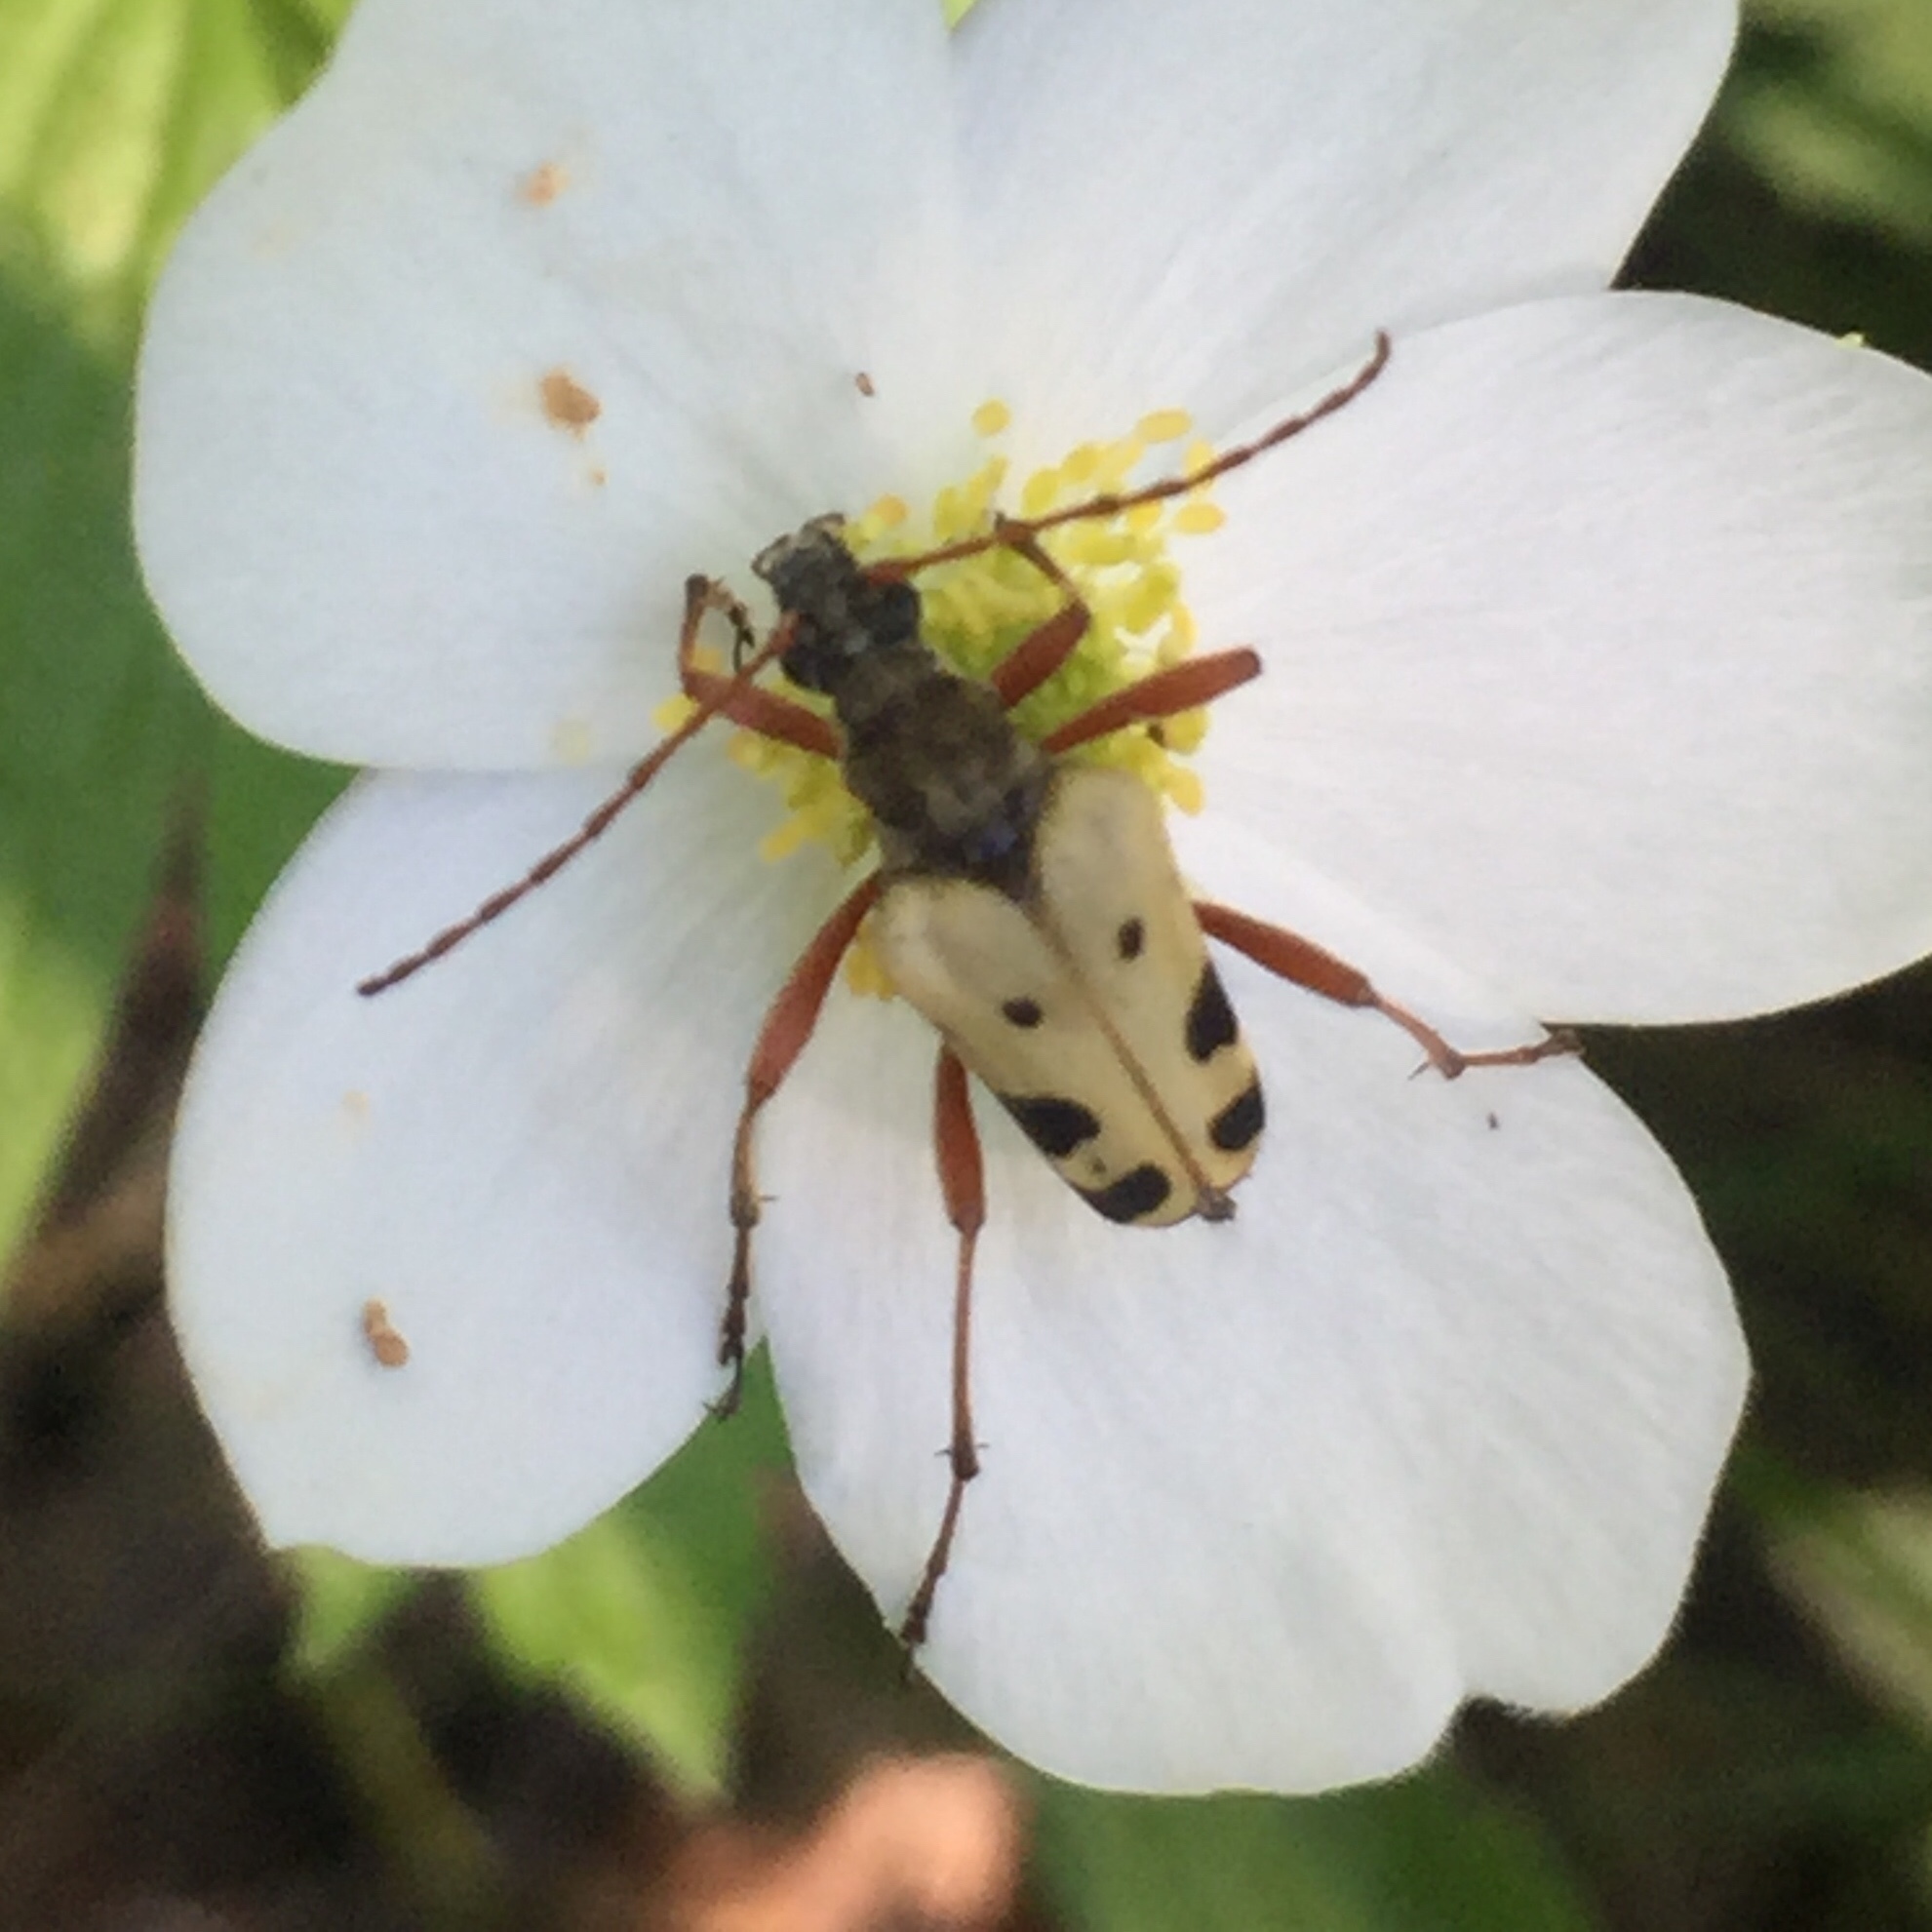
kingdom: Animalia
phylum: Arthropoda
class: Insecta
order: Coleoptera
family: Cerambycidae
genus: Evodinus
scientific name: Evodinus monticola
